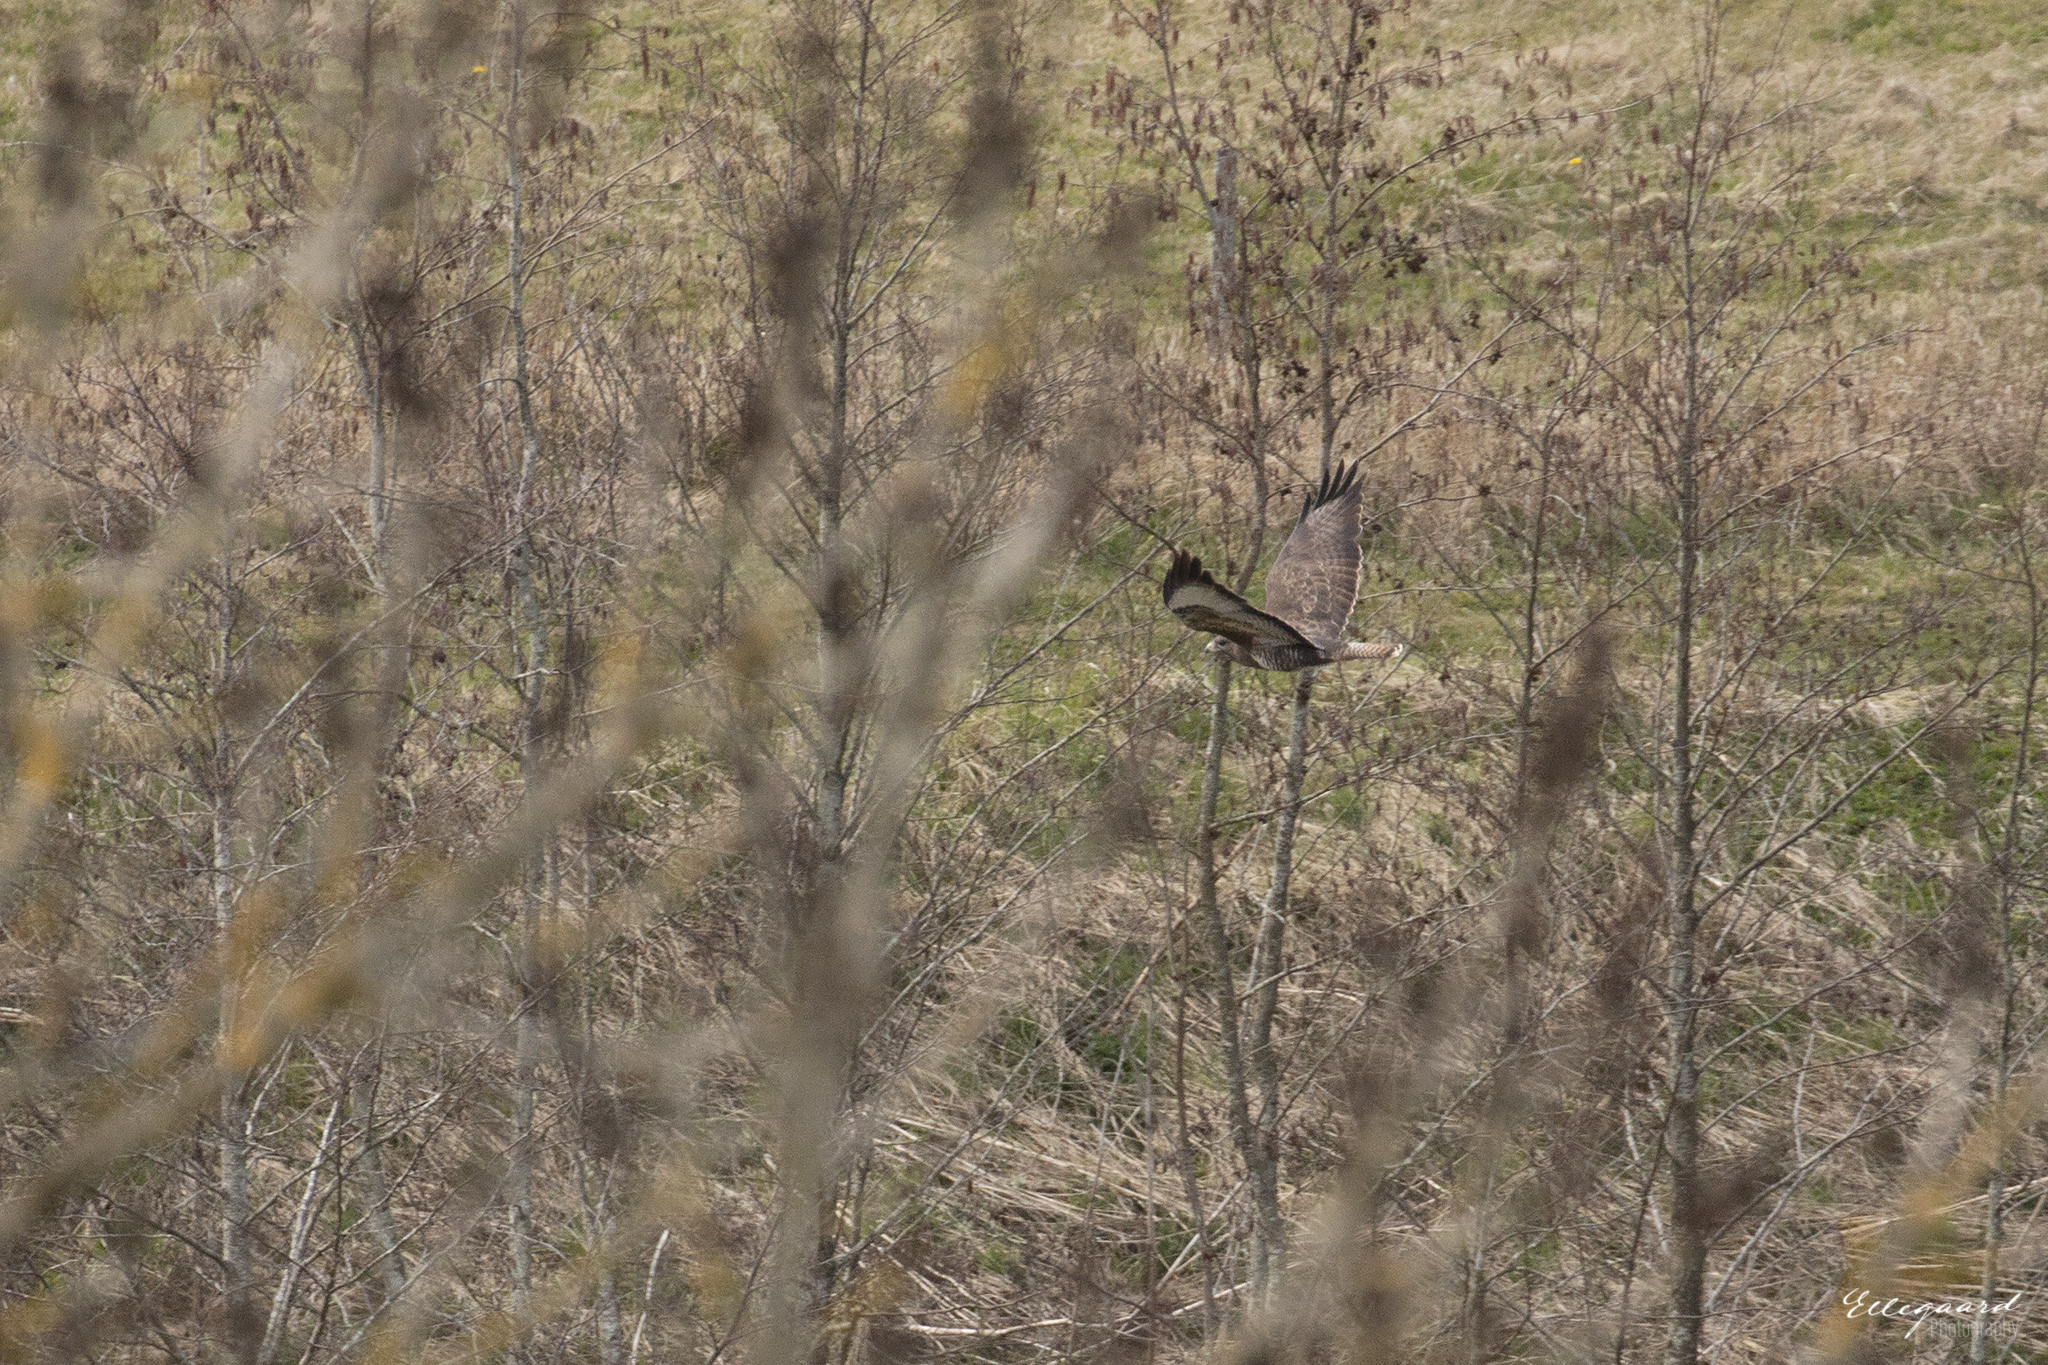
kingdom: Animalia
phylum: Chordata
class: Aves
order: Accipitriformes
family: Accipitridae
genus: Buteo
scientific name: Buteo buteo
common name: Common buzzard
